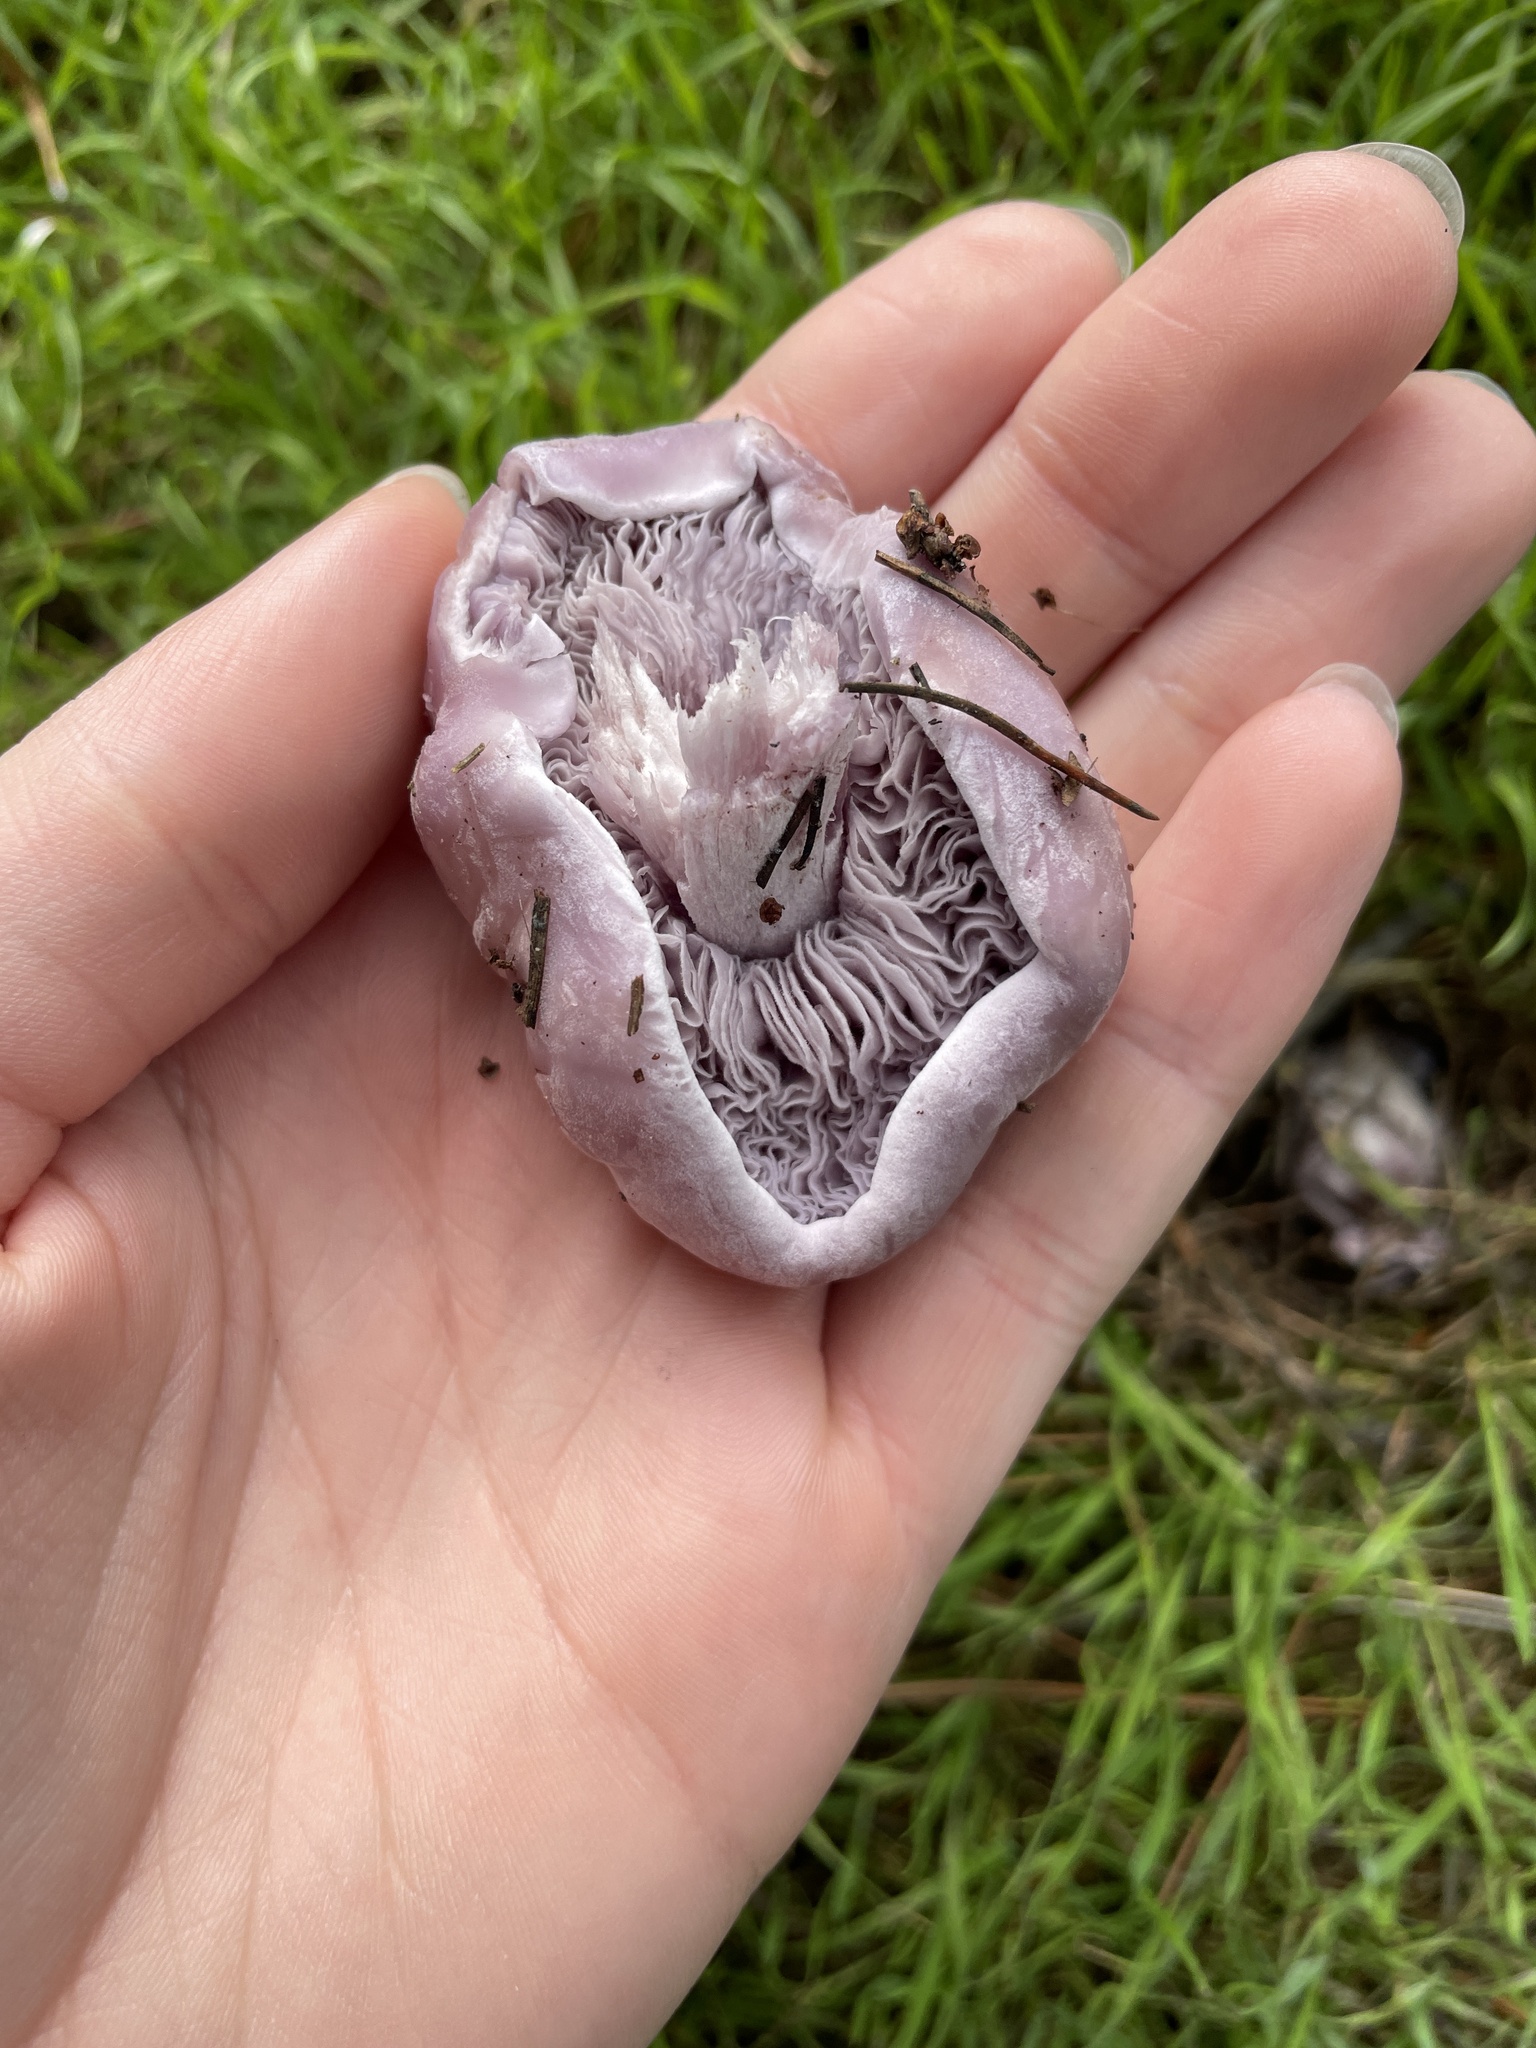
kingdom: Fungi
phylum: Basidiomycota
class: Agaricomycetes
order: Agaricales
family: Tricholomataceae
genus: Collybia
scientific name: Collybia
